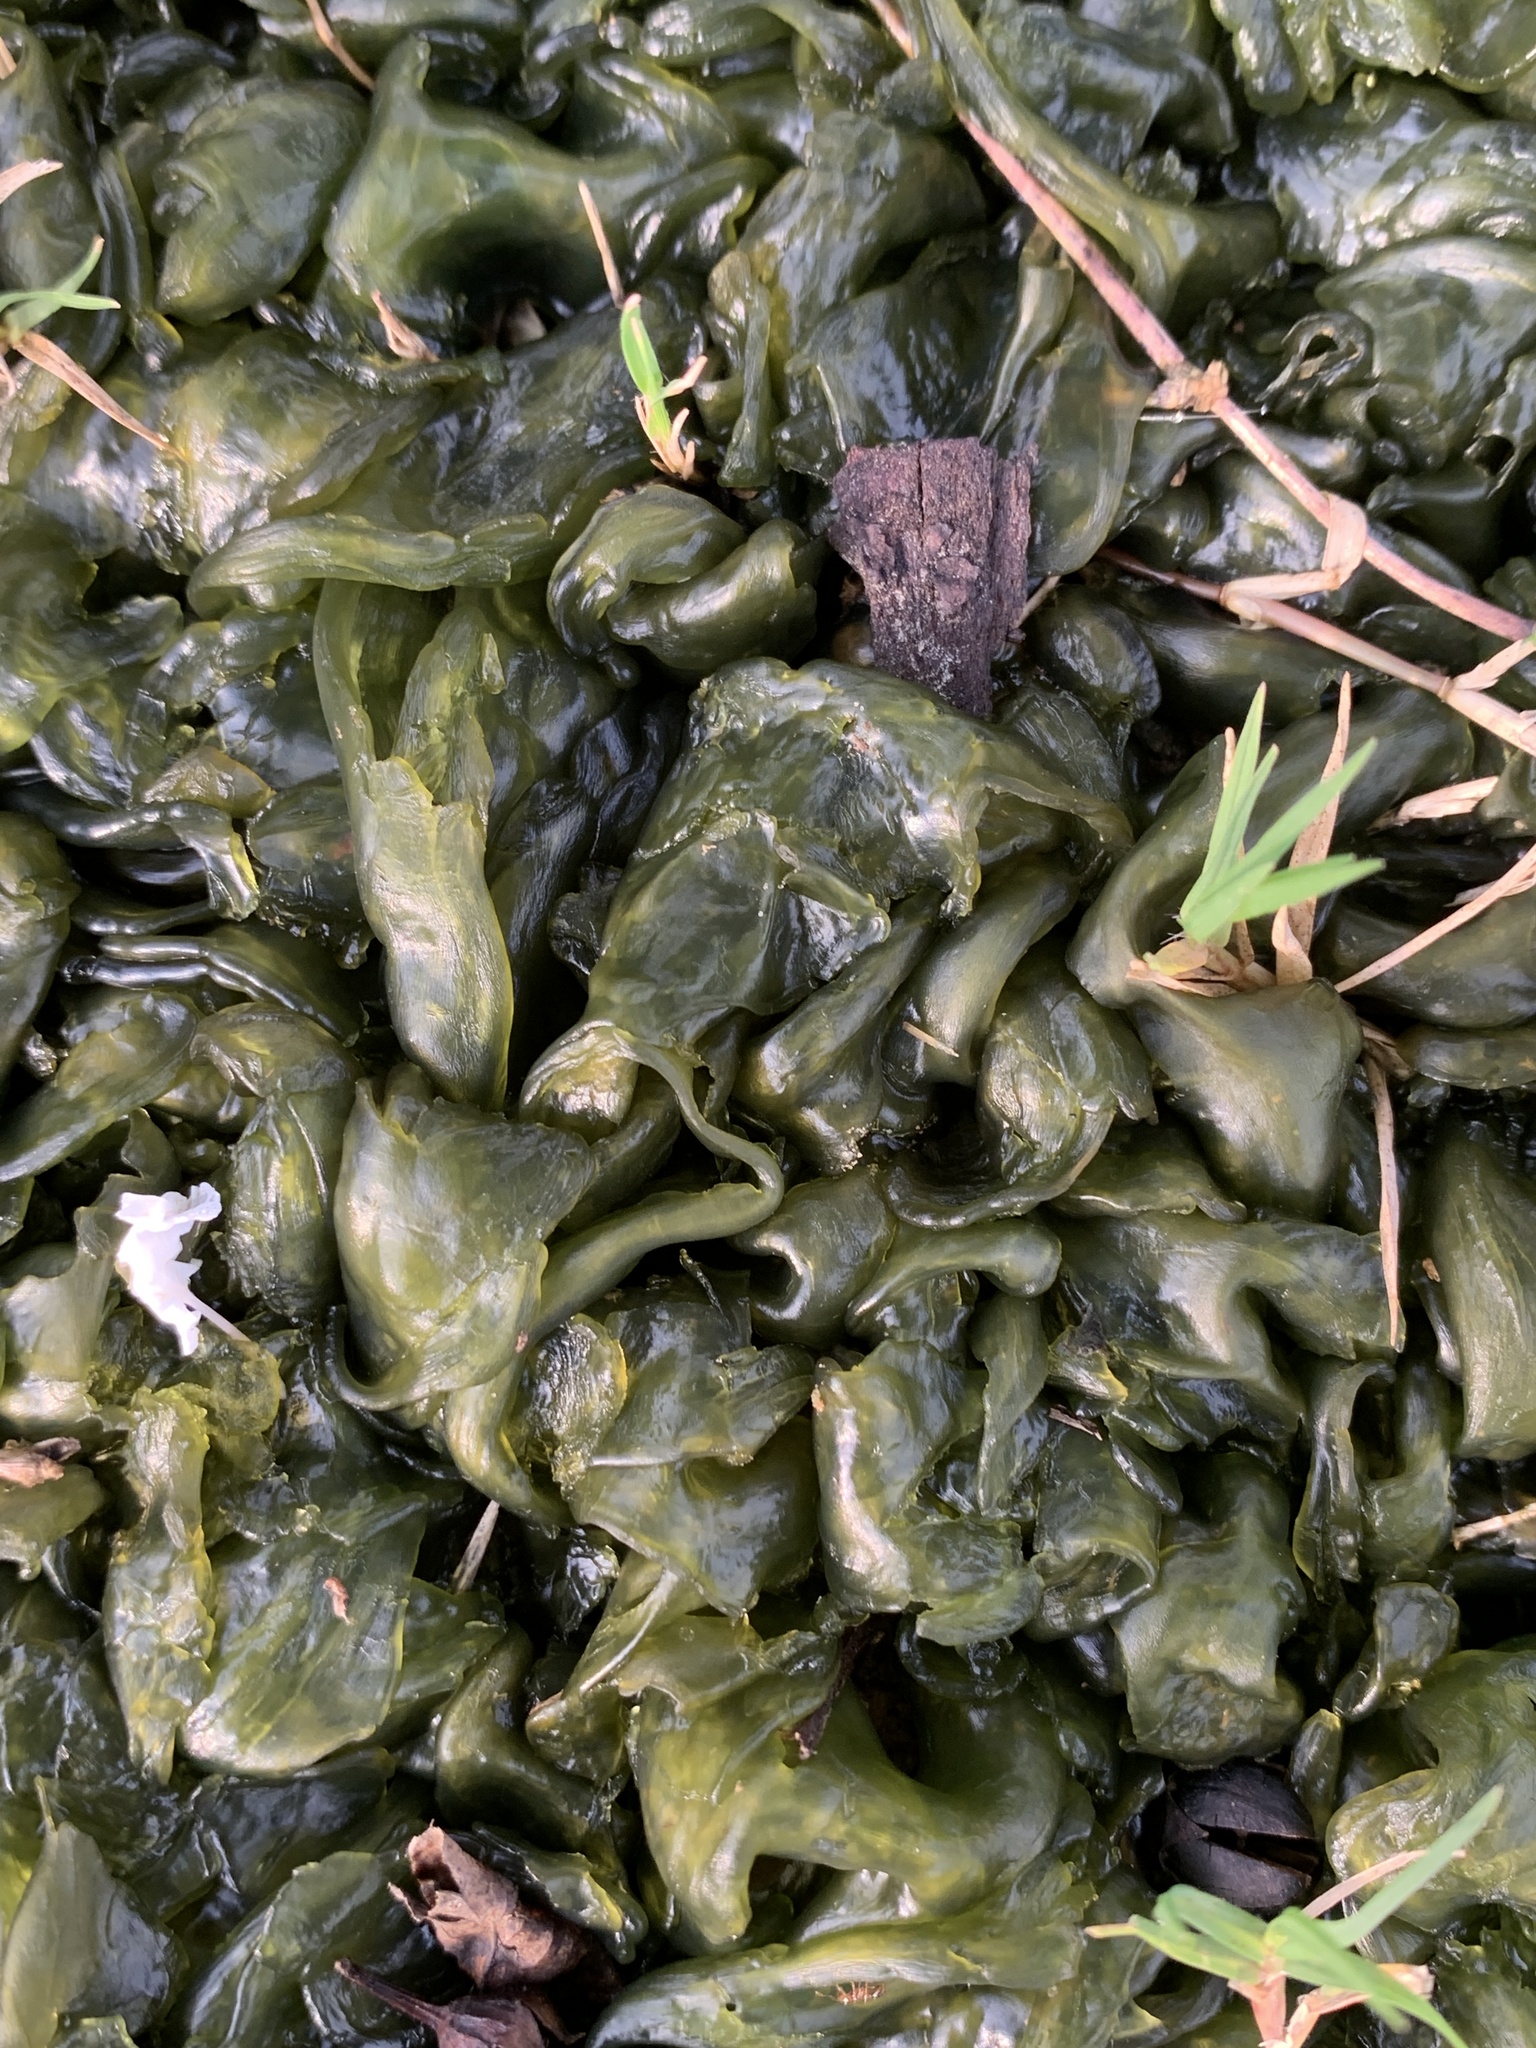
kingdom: Bacteria
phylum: Cyanobacteria
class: Cyanobacteriia
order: Cyanobacteriales
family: Nostocaceae
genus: Nostoc
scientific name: Nostoc commune
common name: Star jelly
